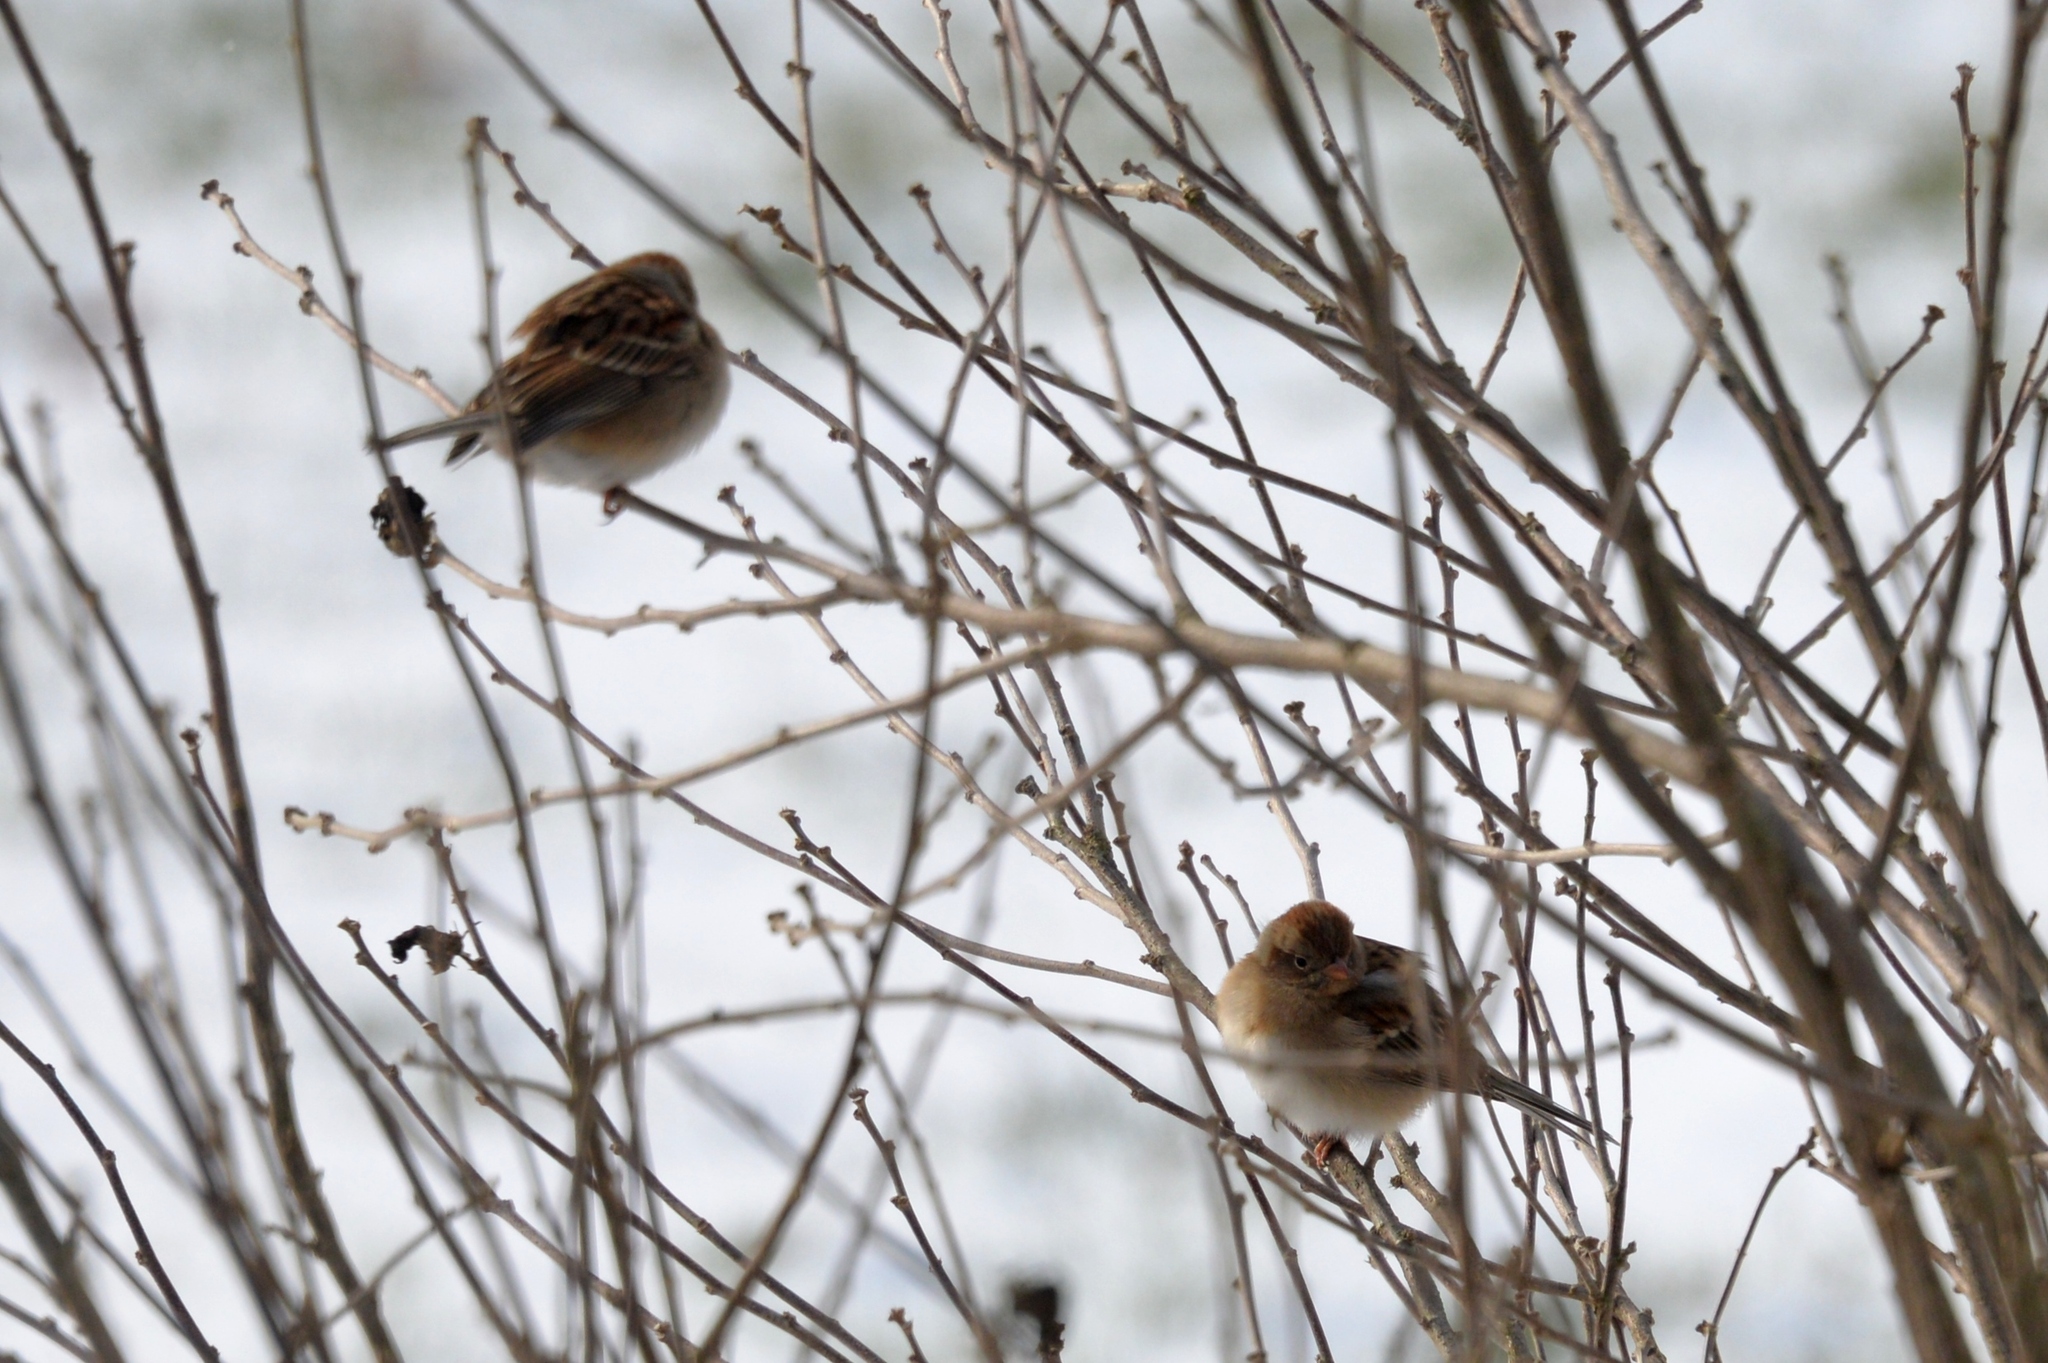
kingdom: Animalia
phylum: Chordata
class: Aves
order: Passeriformes
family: Passerellidae
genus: Spizella
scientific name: Spizella pusilla
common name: Field sparrow
